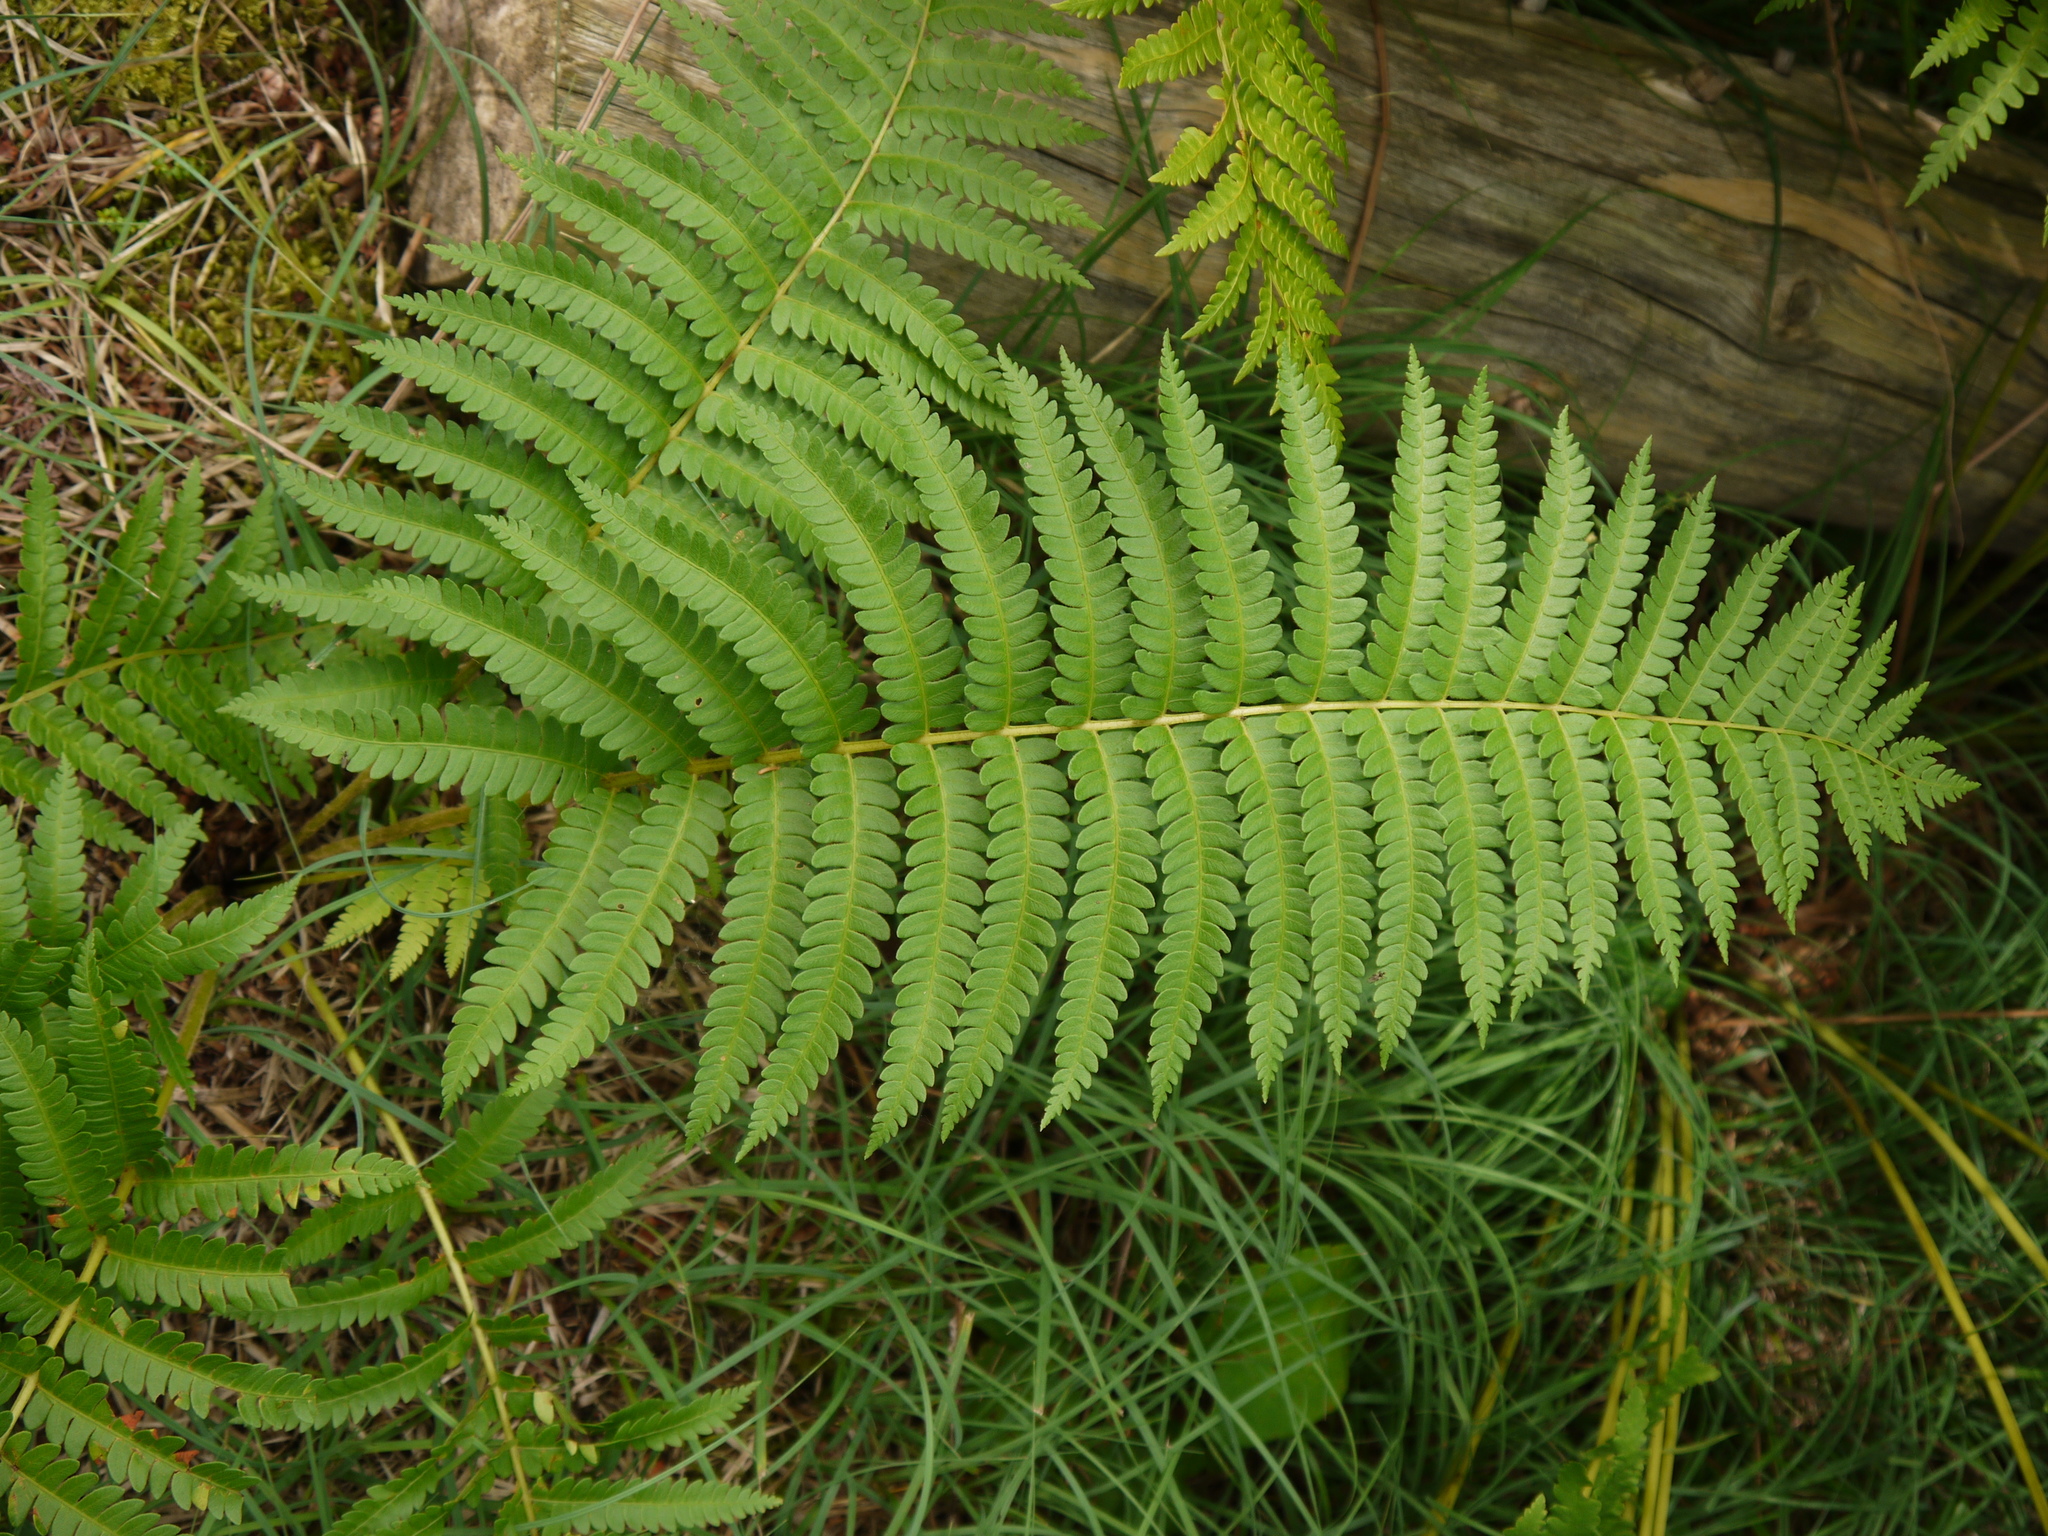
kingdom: Plantae
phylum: Tracheophyta
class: Polypodiopsida
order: Osmundales
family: Osmundaceae
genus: Osmundastrum
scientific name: Osmundastrum cinnamomeum
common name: Cinnamon fern
